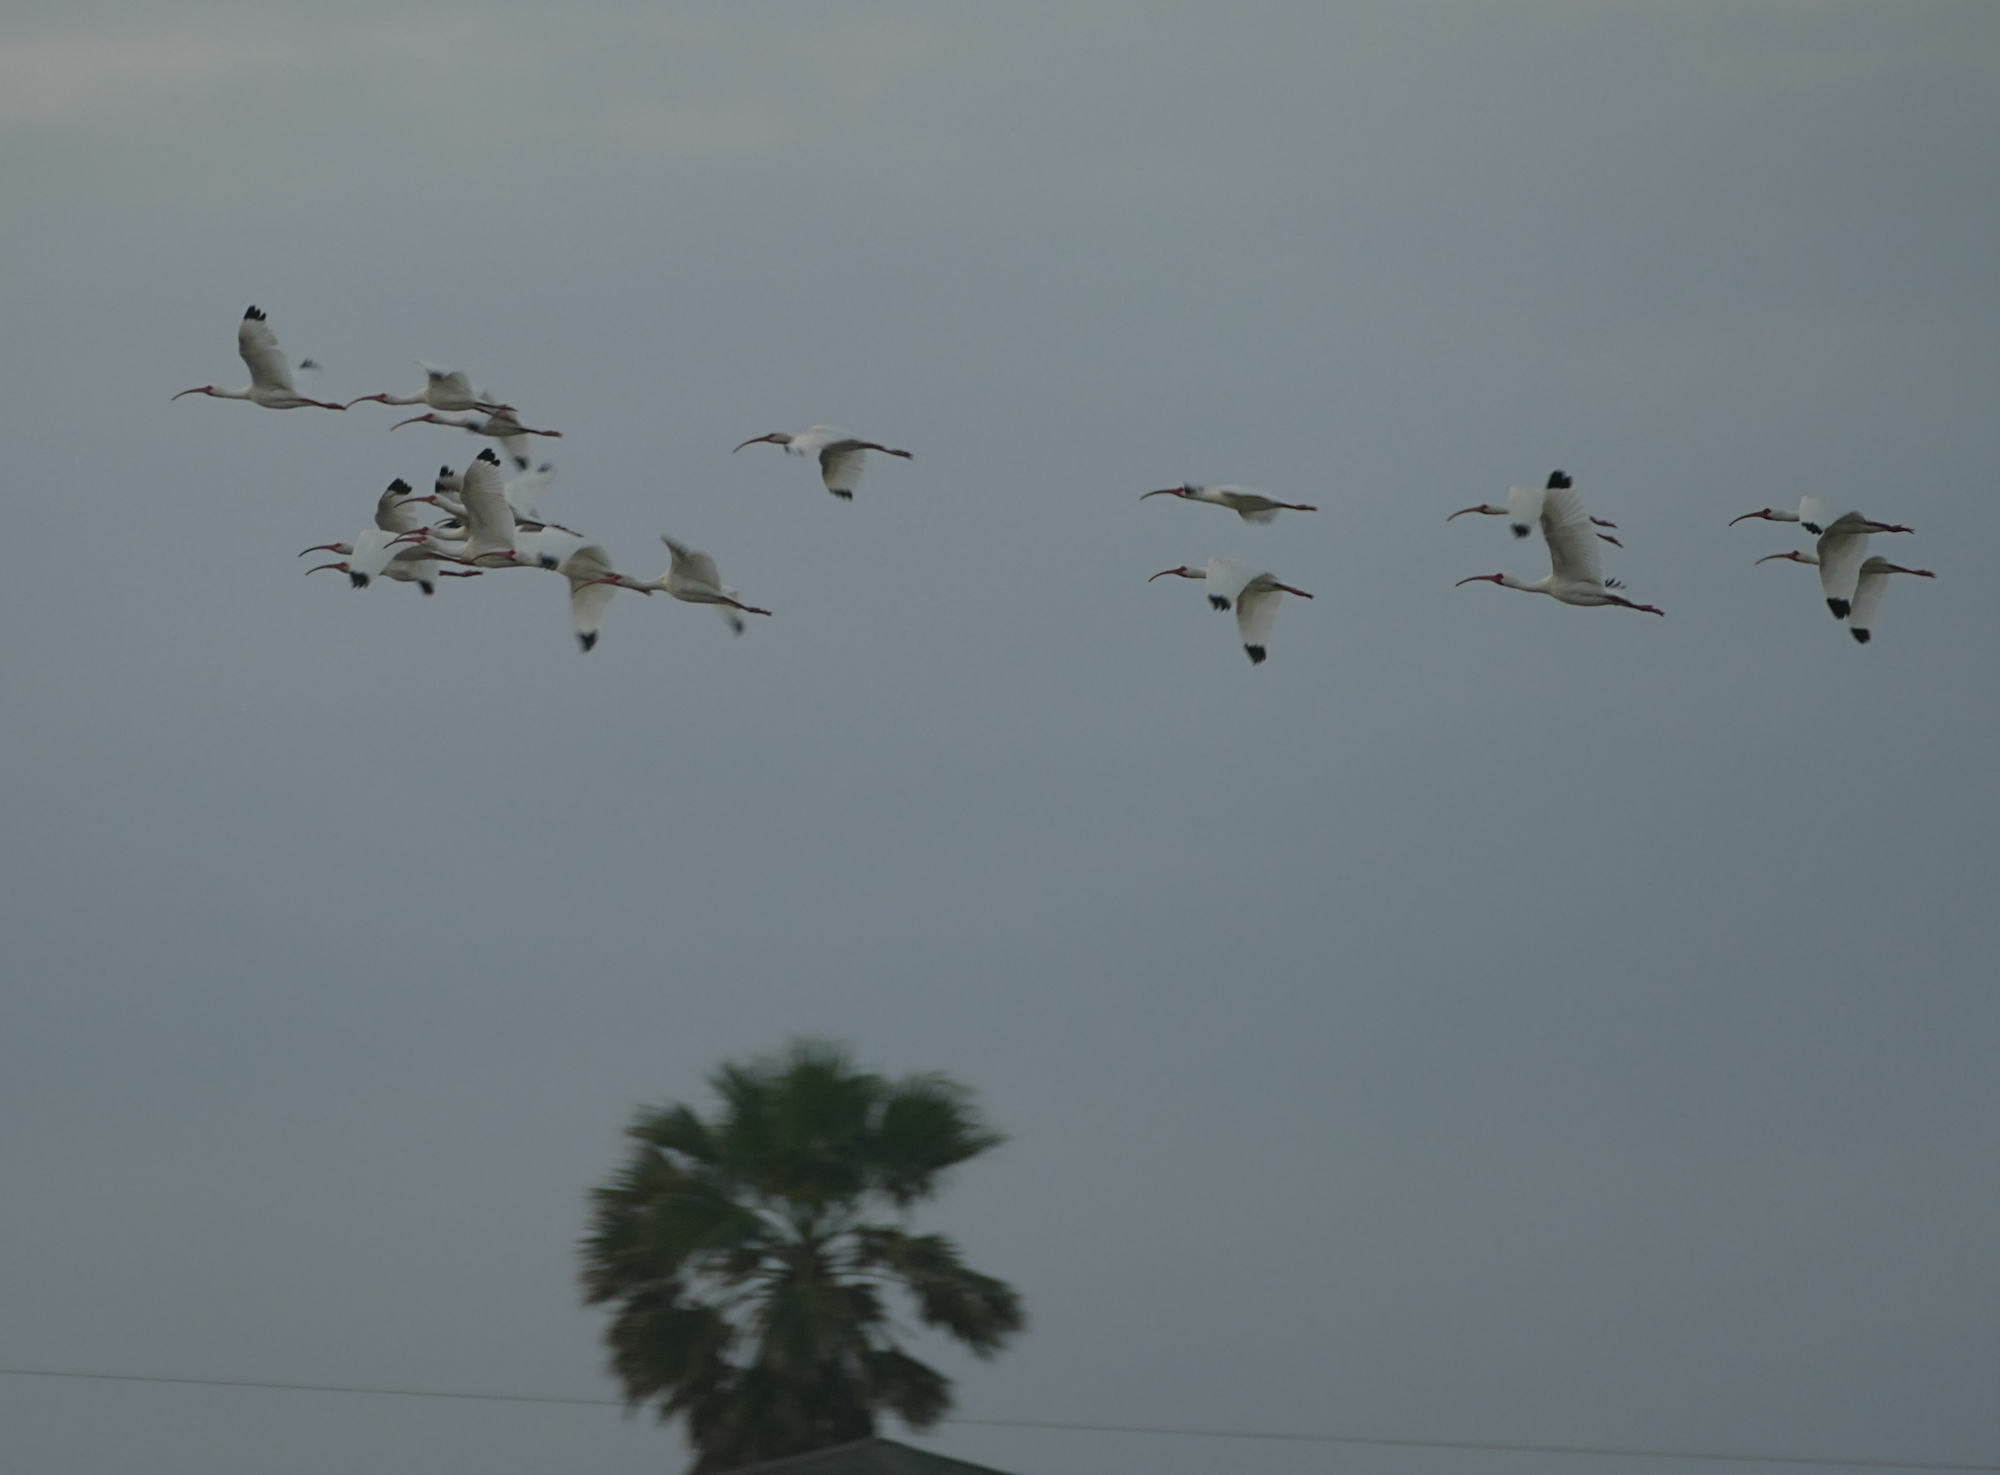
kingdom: Animalia
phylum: Chordata
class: Aves
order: Pelecaniformes
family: Threskiornithidae
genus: Eudocimus
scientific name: Eudocimus albus
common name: White ibis
